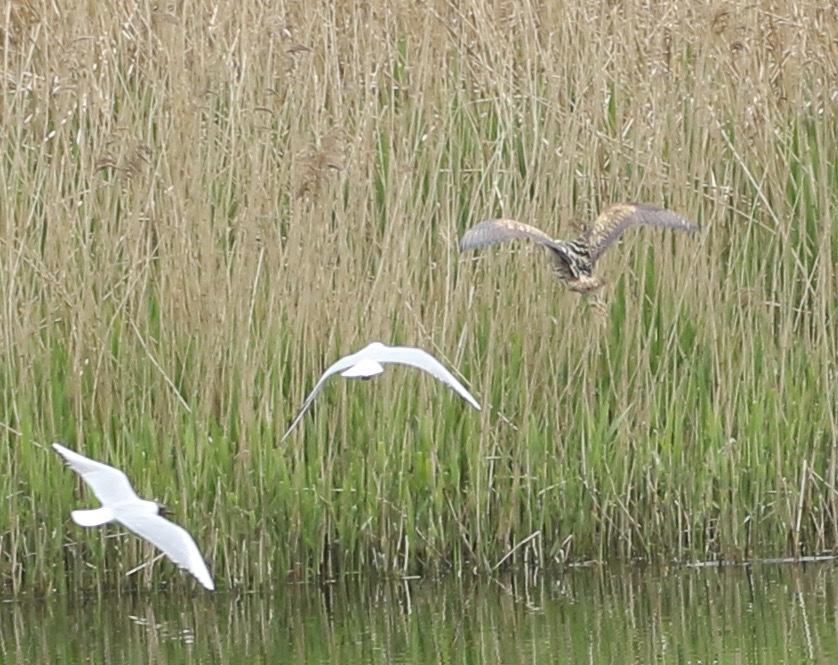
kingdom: Animalia
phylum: Chordata
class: Aves
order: Pelecaniformes
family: Ardeidae
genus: Botaurus
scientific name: Botaurus stellaris
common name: Eurasian bittern
